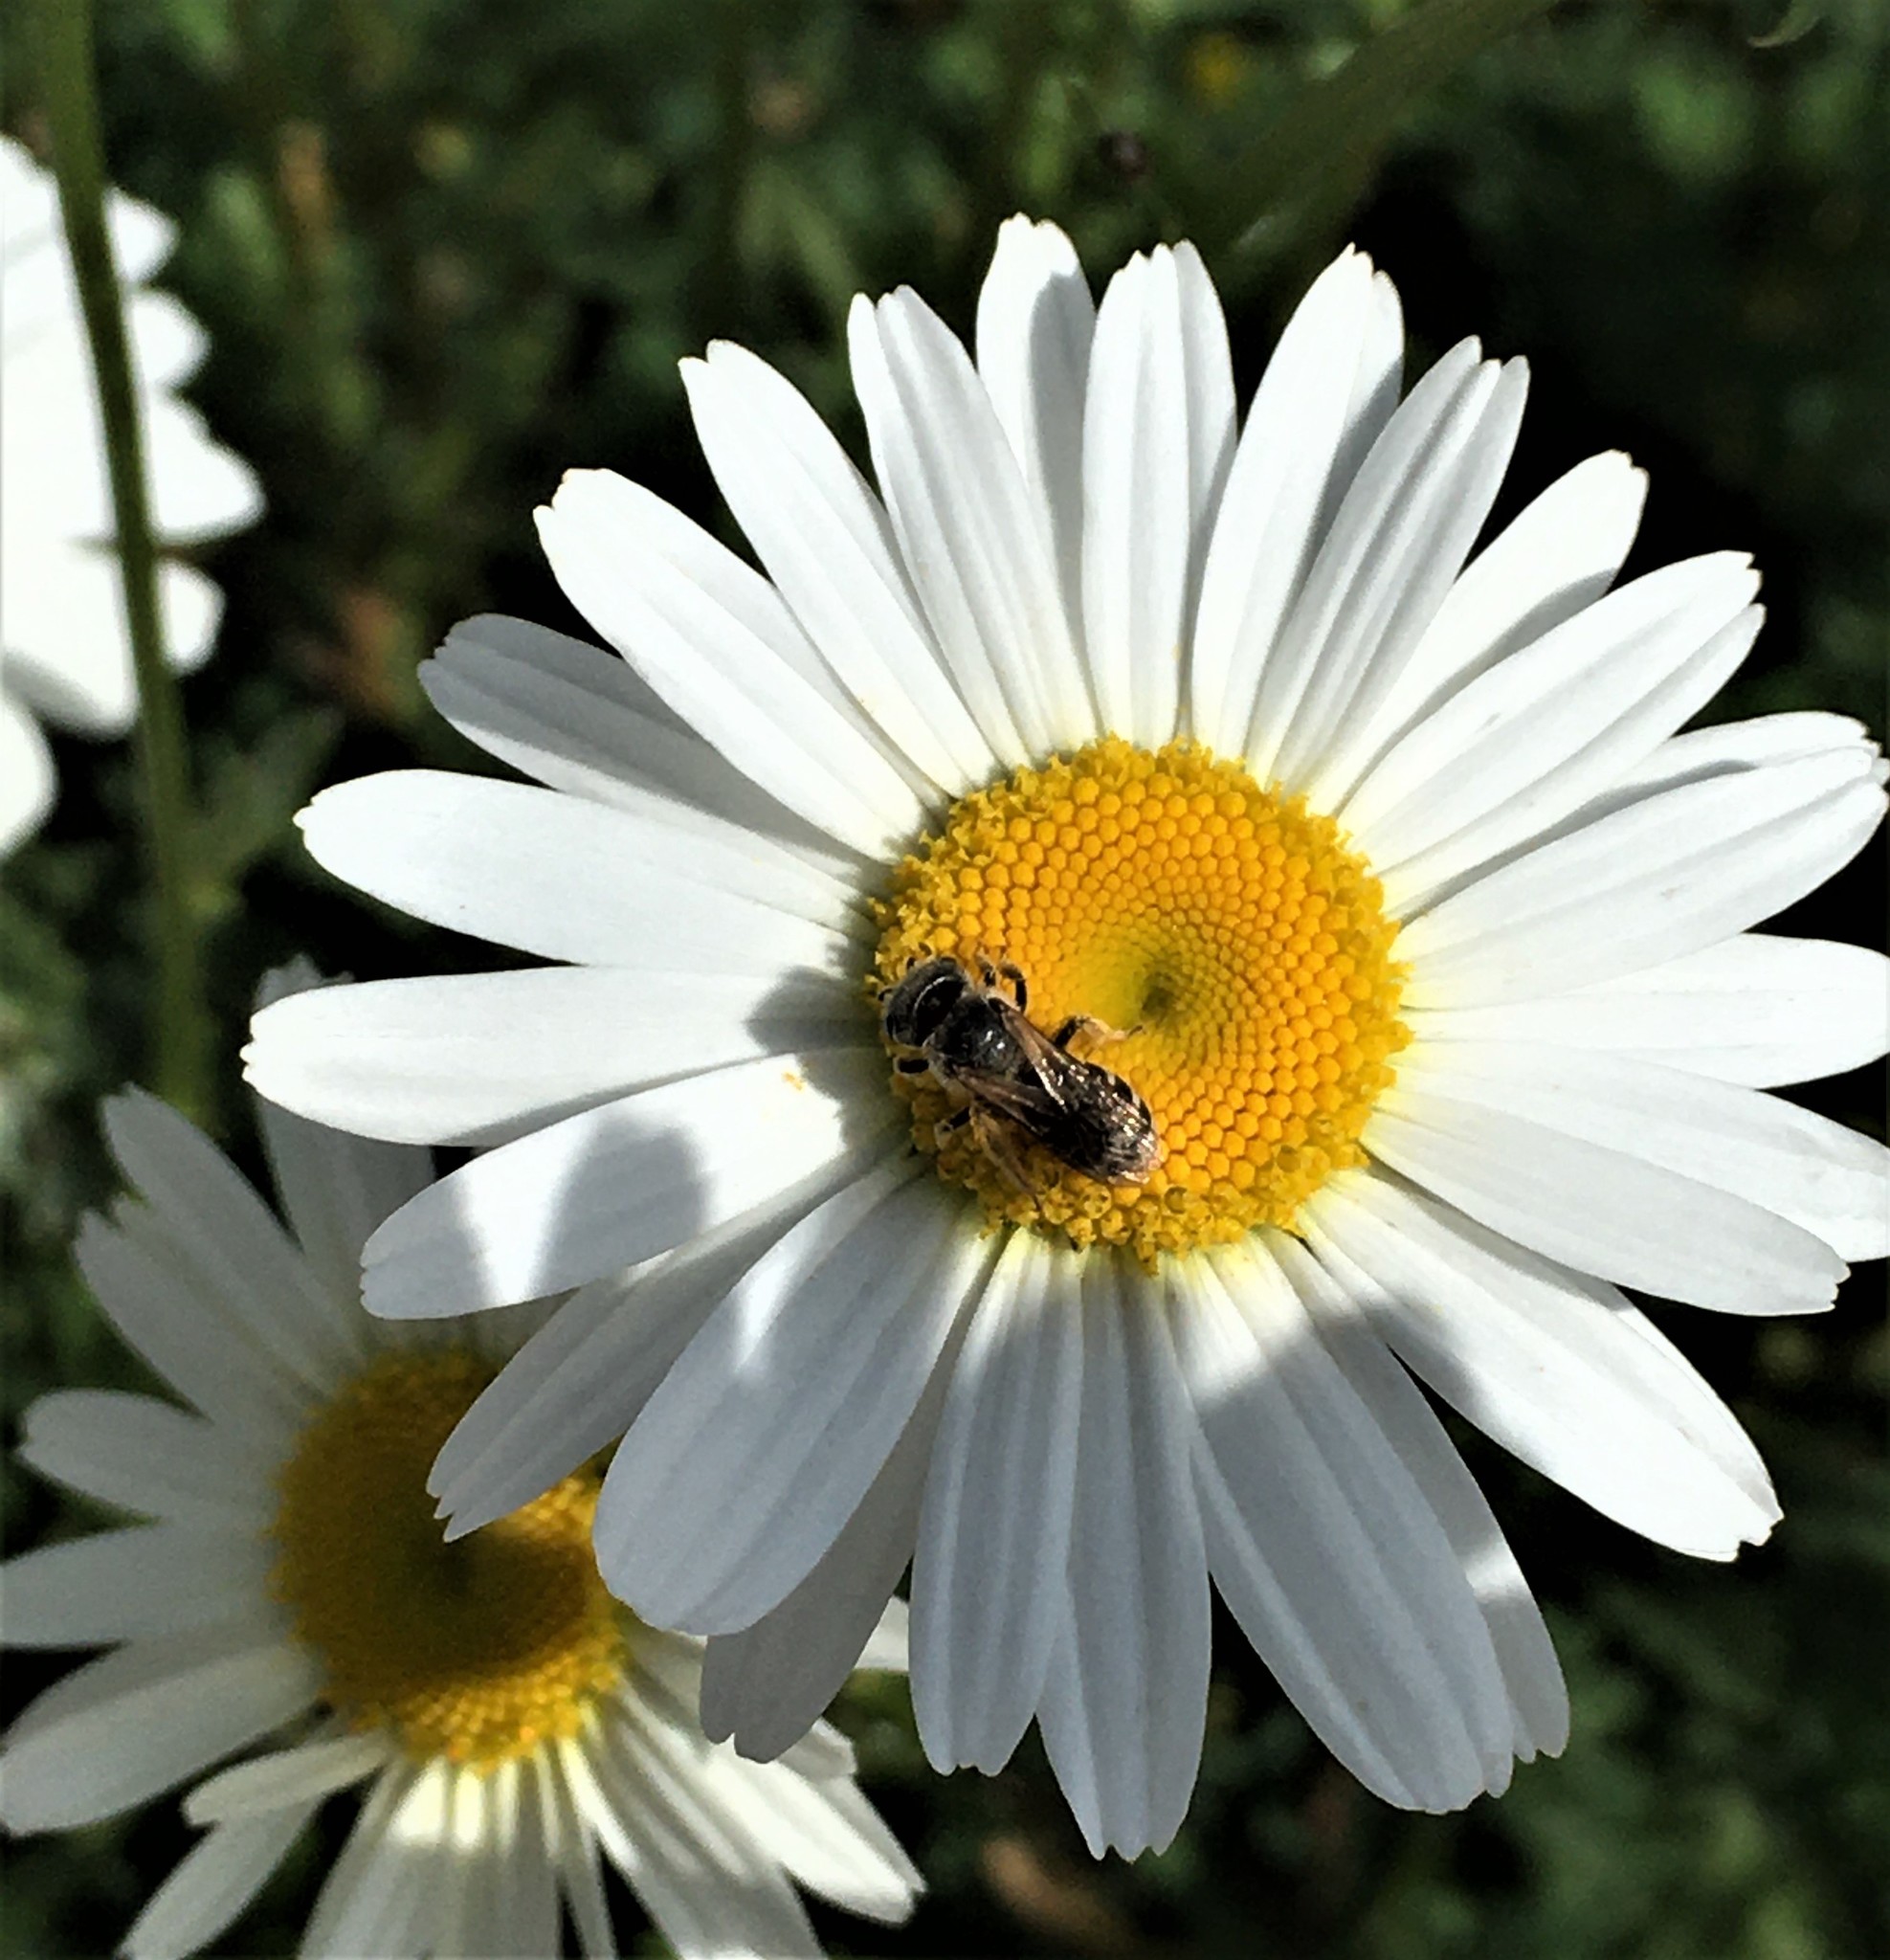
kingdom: Animalia
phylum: Arthropoda
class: Insecta
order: Hymenoptera
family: Halictidae
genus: Halictus
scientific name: Halictus ligatus
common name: Ligated furrow bee
